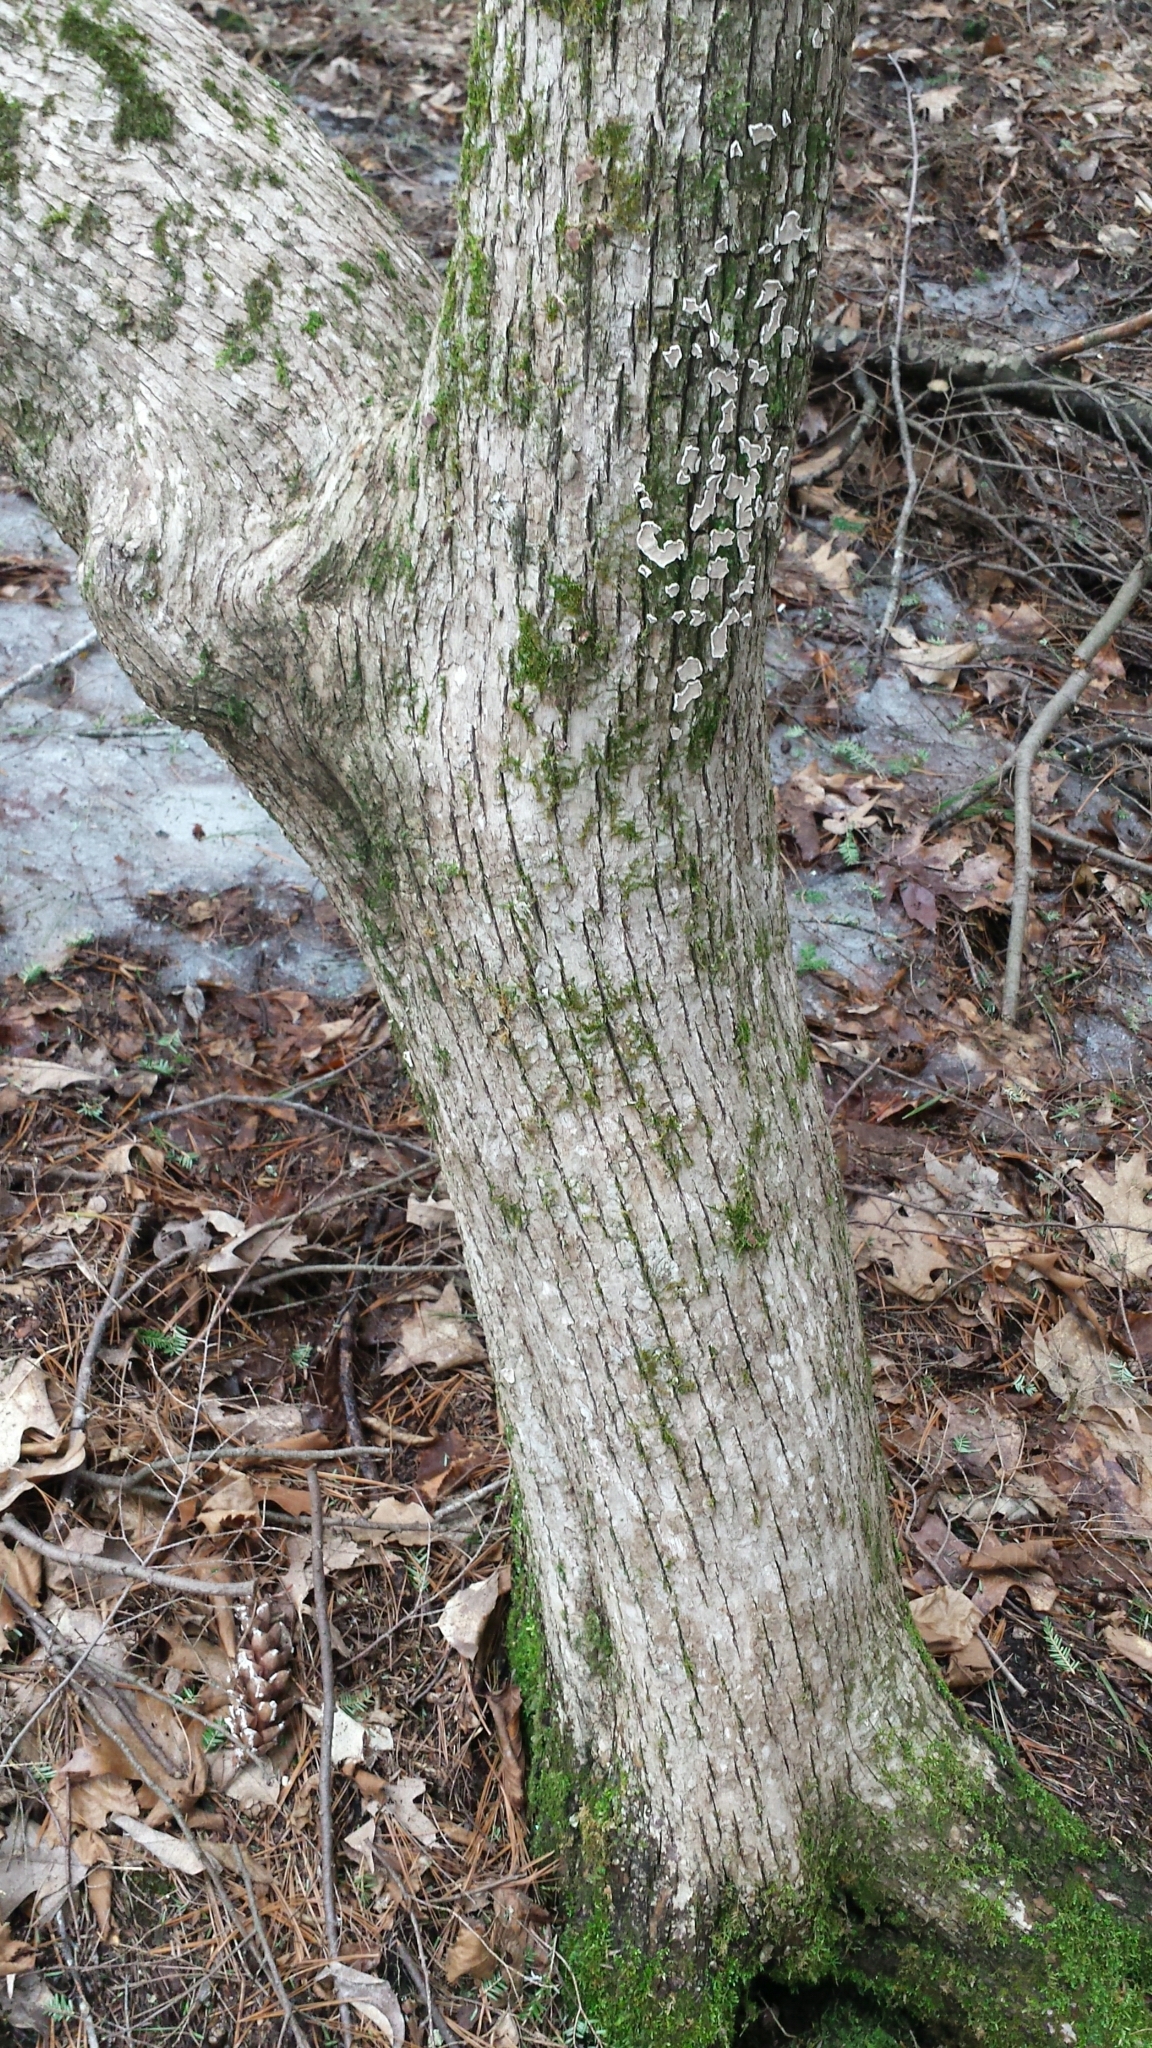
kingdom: Plantae
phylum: Tracheophyta
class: Magnoliopsida
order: Fagales
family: Betulaceae
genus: Ostrya
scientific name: Ostrya virginiana
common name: Ironwood
